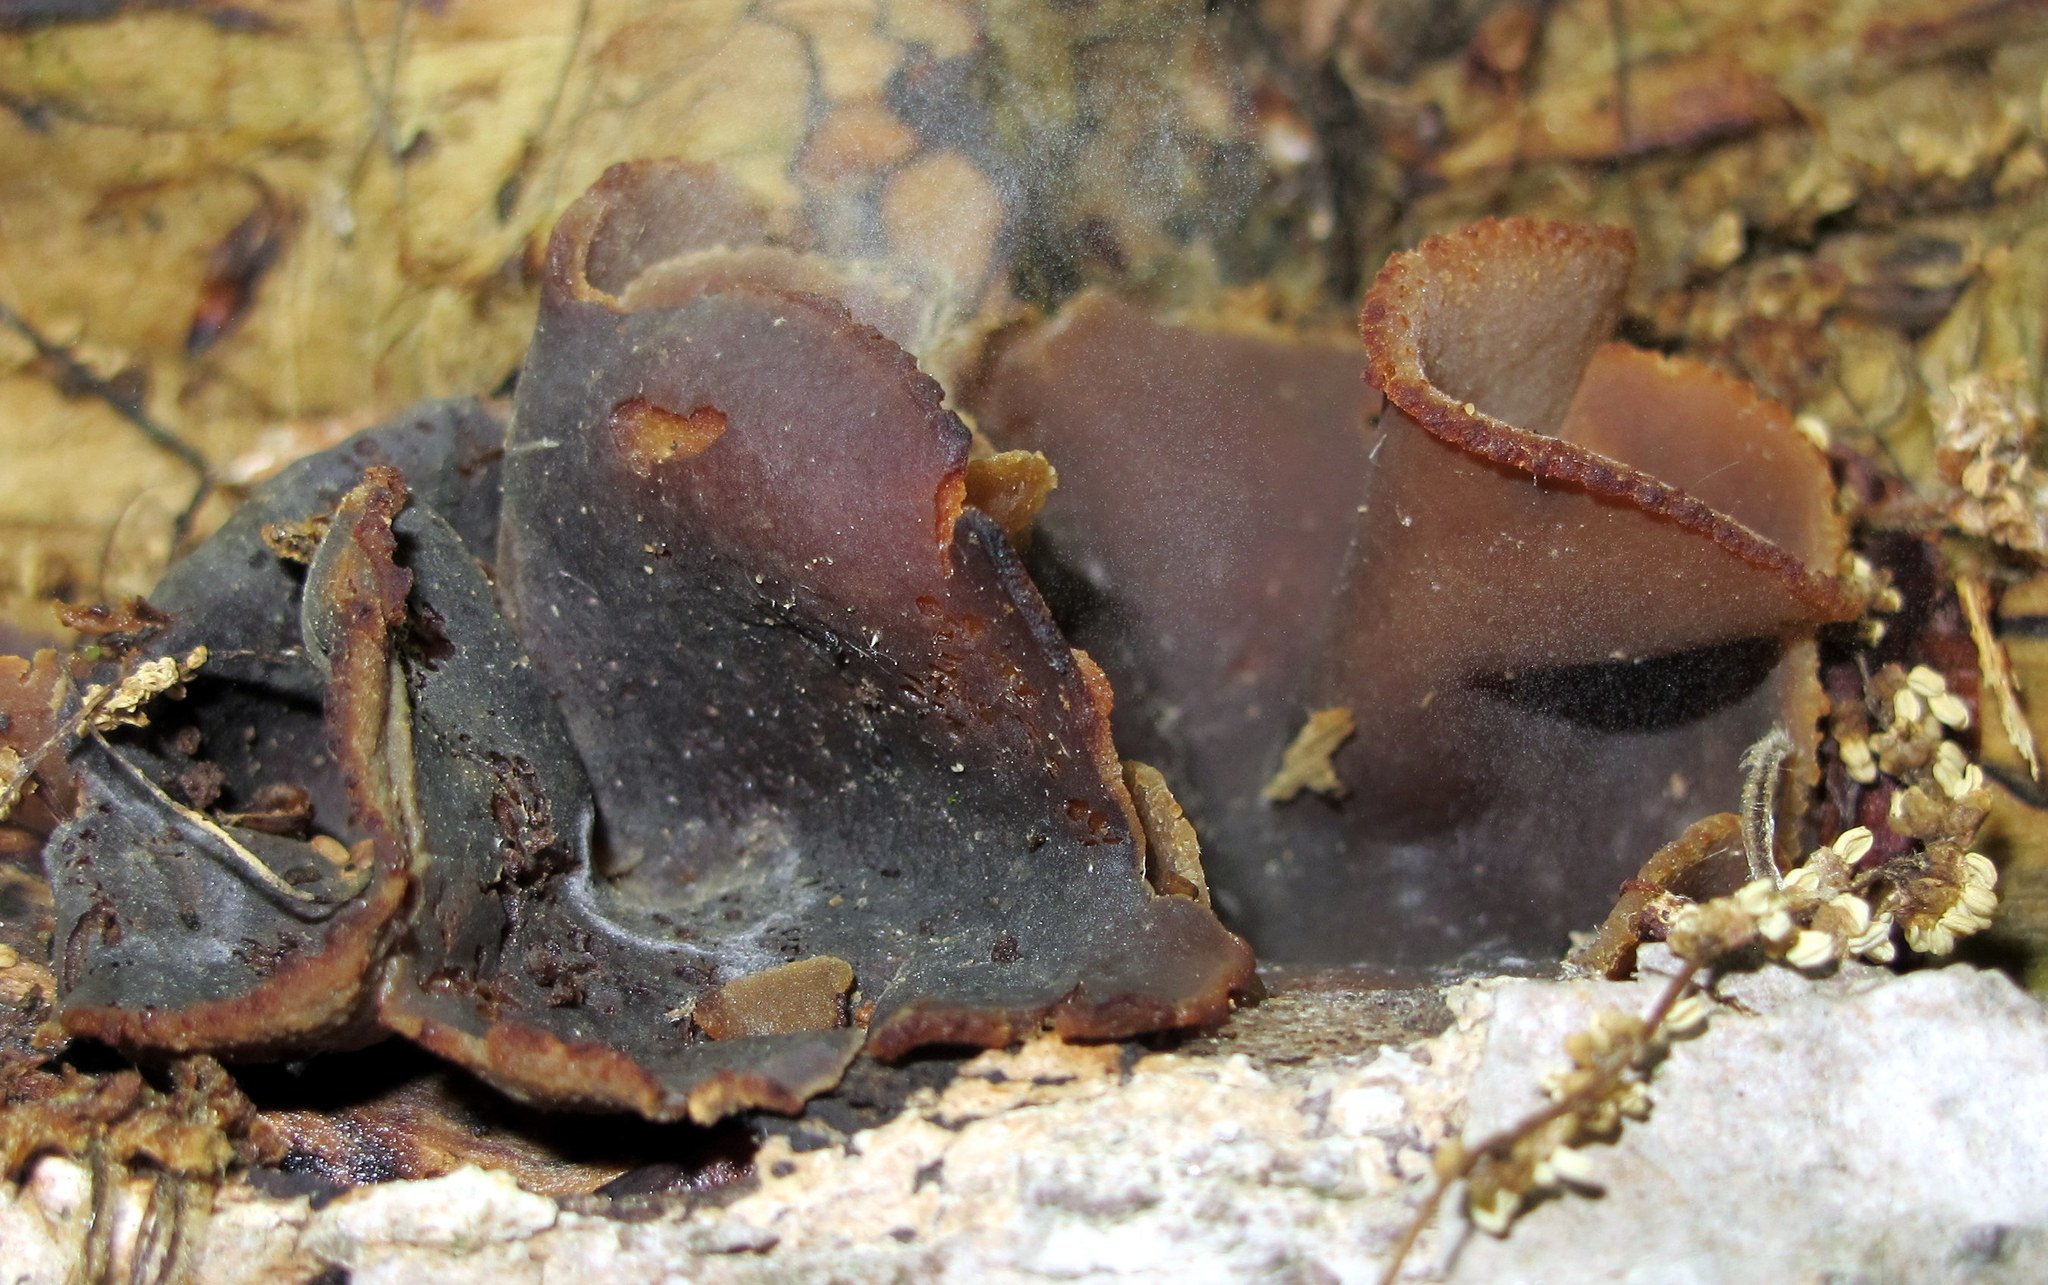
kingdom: Fungi
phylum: Ascomycota
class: Pezizomycetes
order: Pezizales
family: Pezizaceae
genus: Phylloscypha
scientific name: Phylloscypha phyllogena
